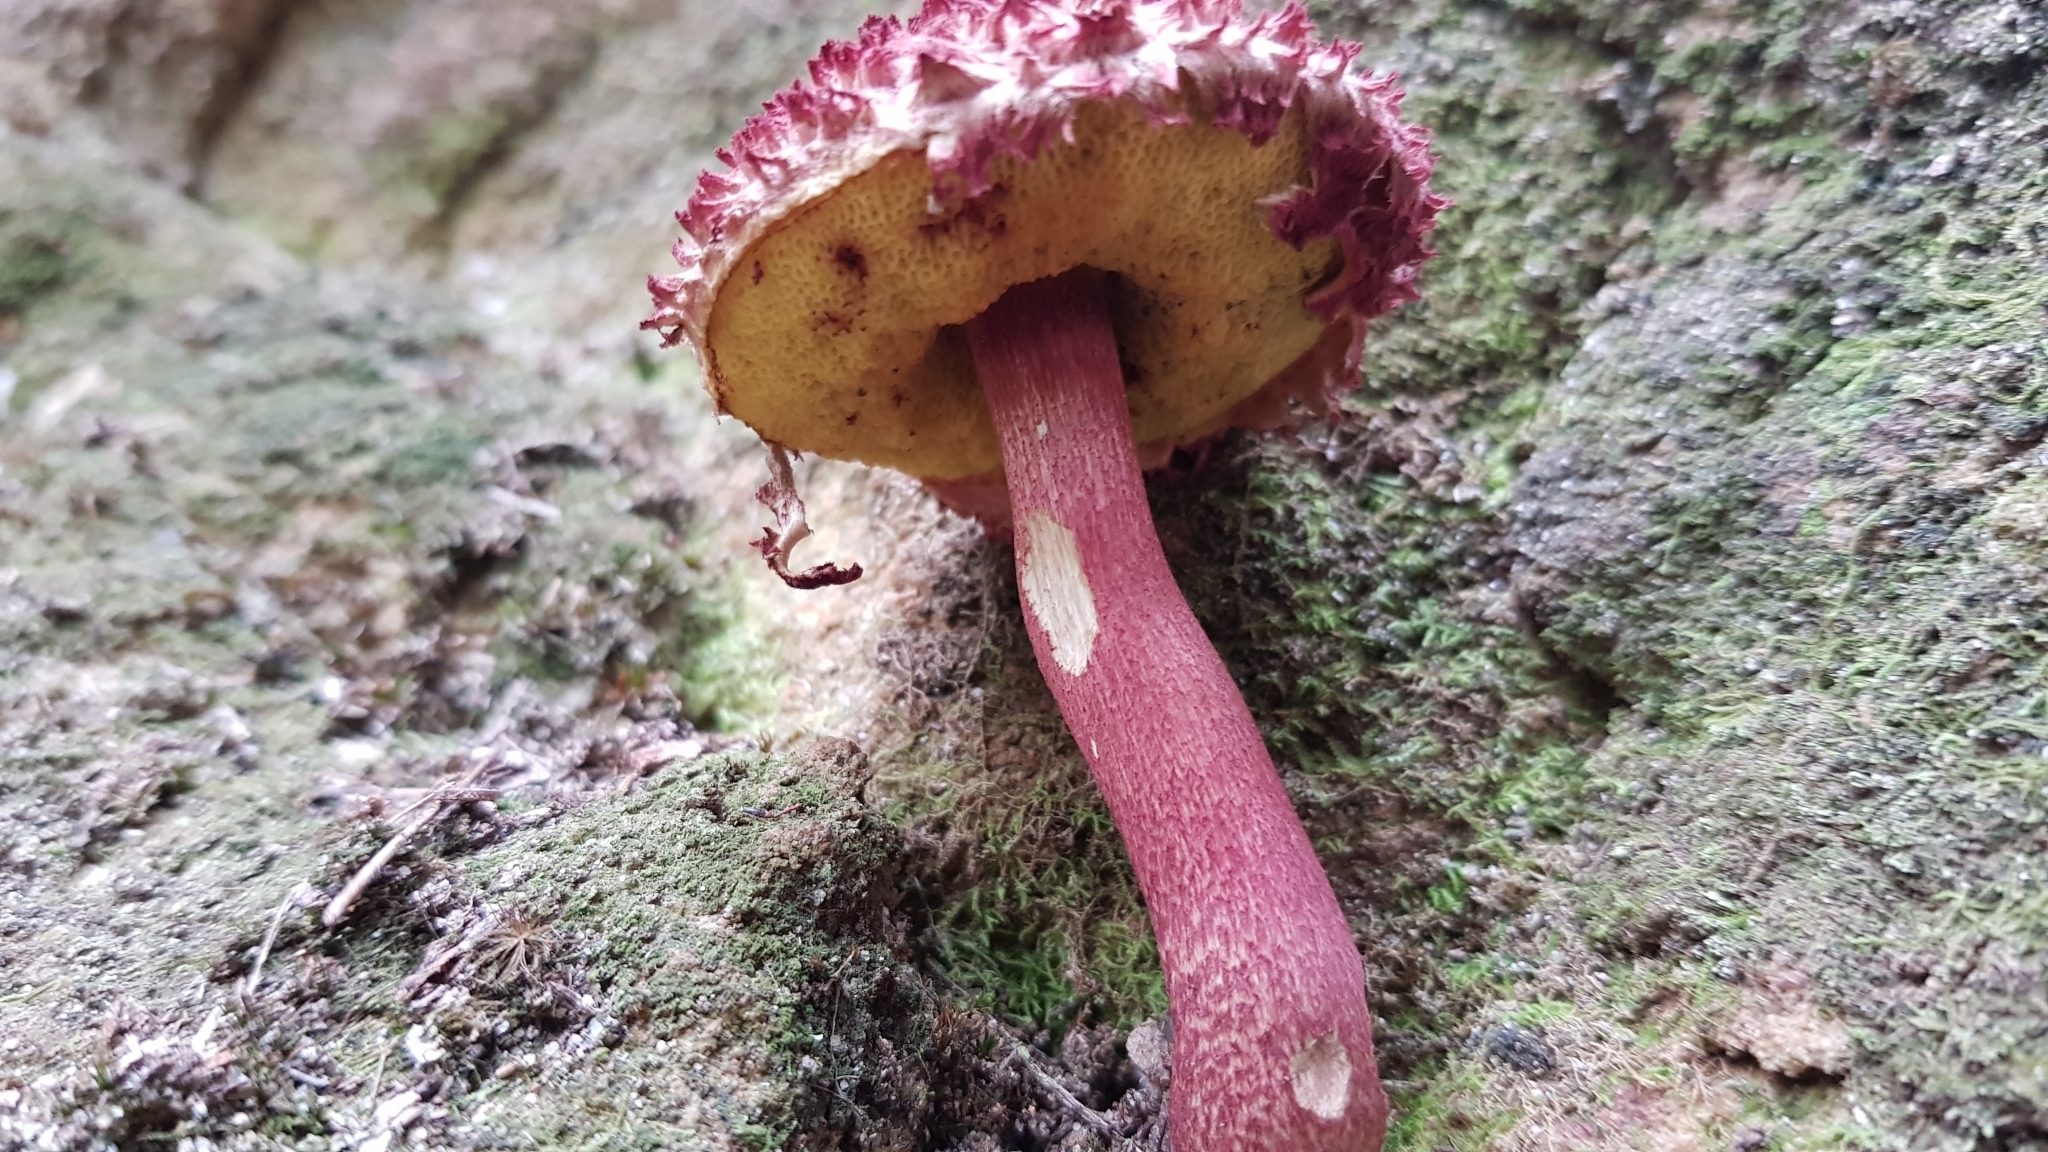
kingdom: Fungi
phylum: Basidiomycota
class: Agaricomycetes
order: Boletales
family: Boletaceae
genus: Boletellus
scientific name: Boletellus emodensis
